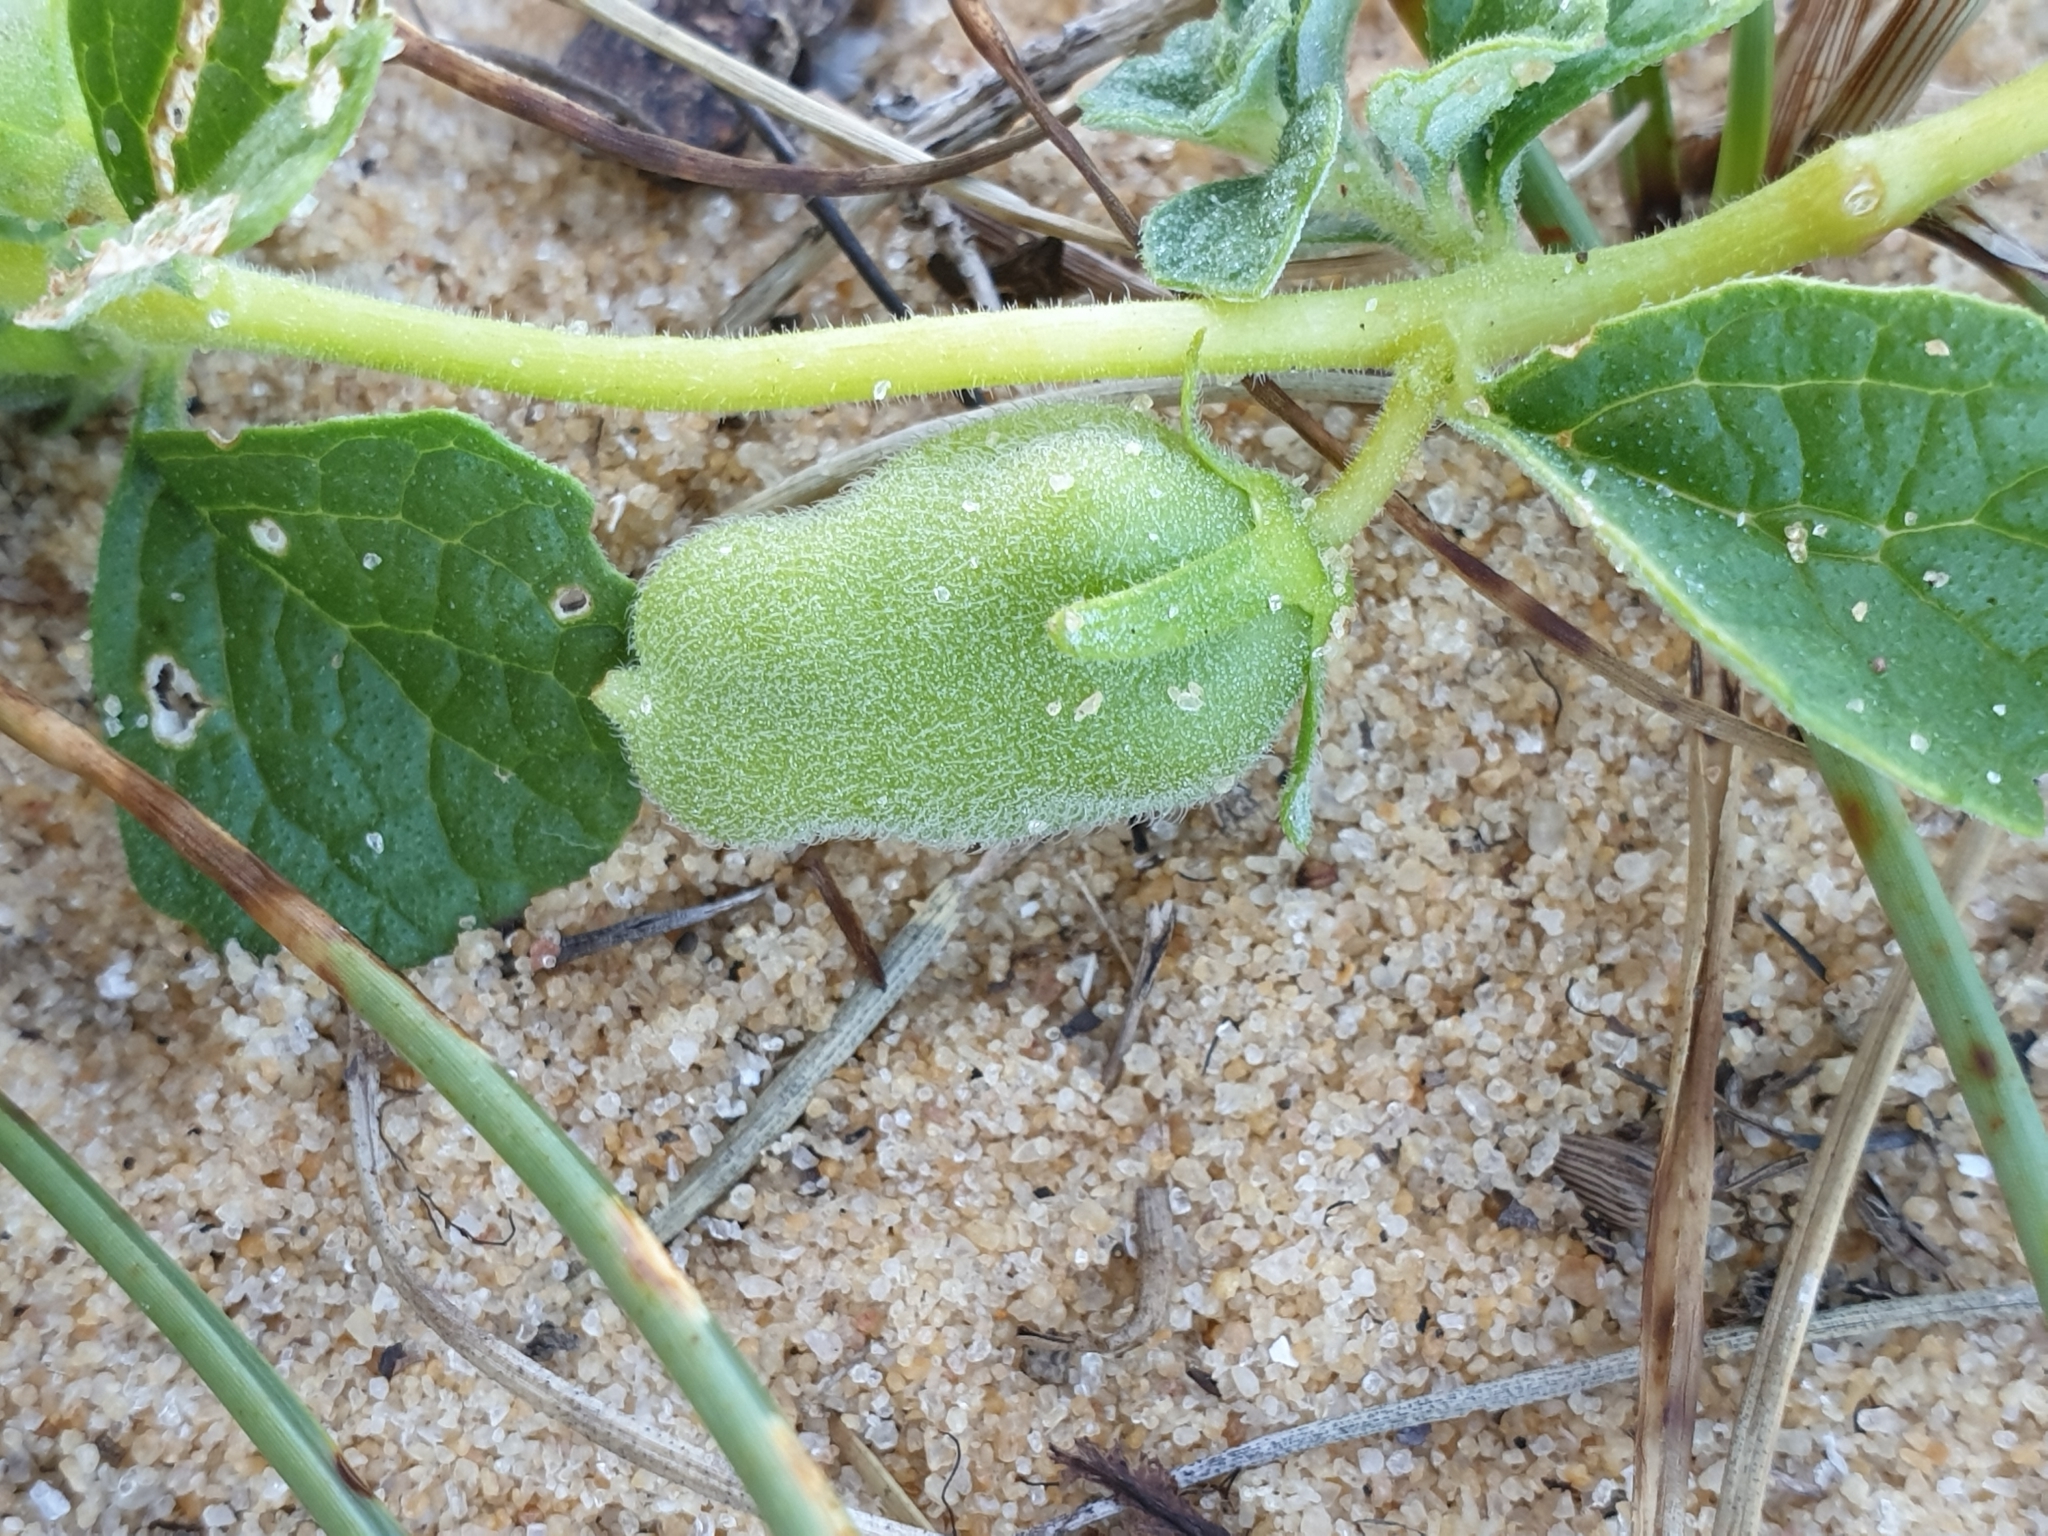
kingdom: Plantae
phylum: Tracheophyta
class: Magnoliopsida
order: Lamiales
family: Pedaliaceae
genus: Sesamum
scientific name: Sesamum prostratum
